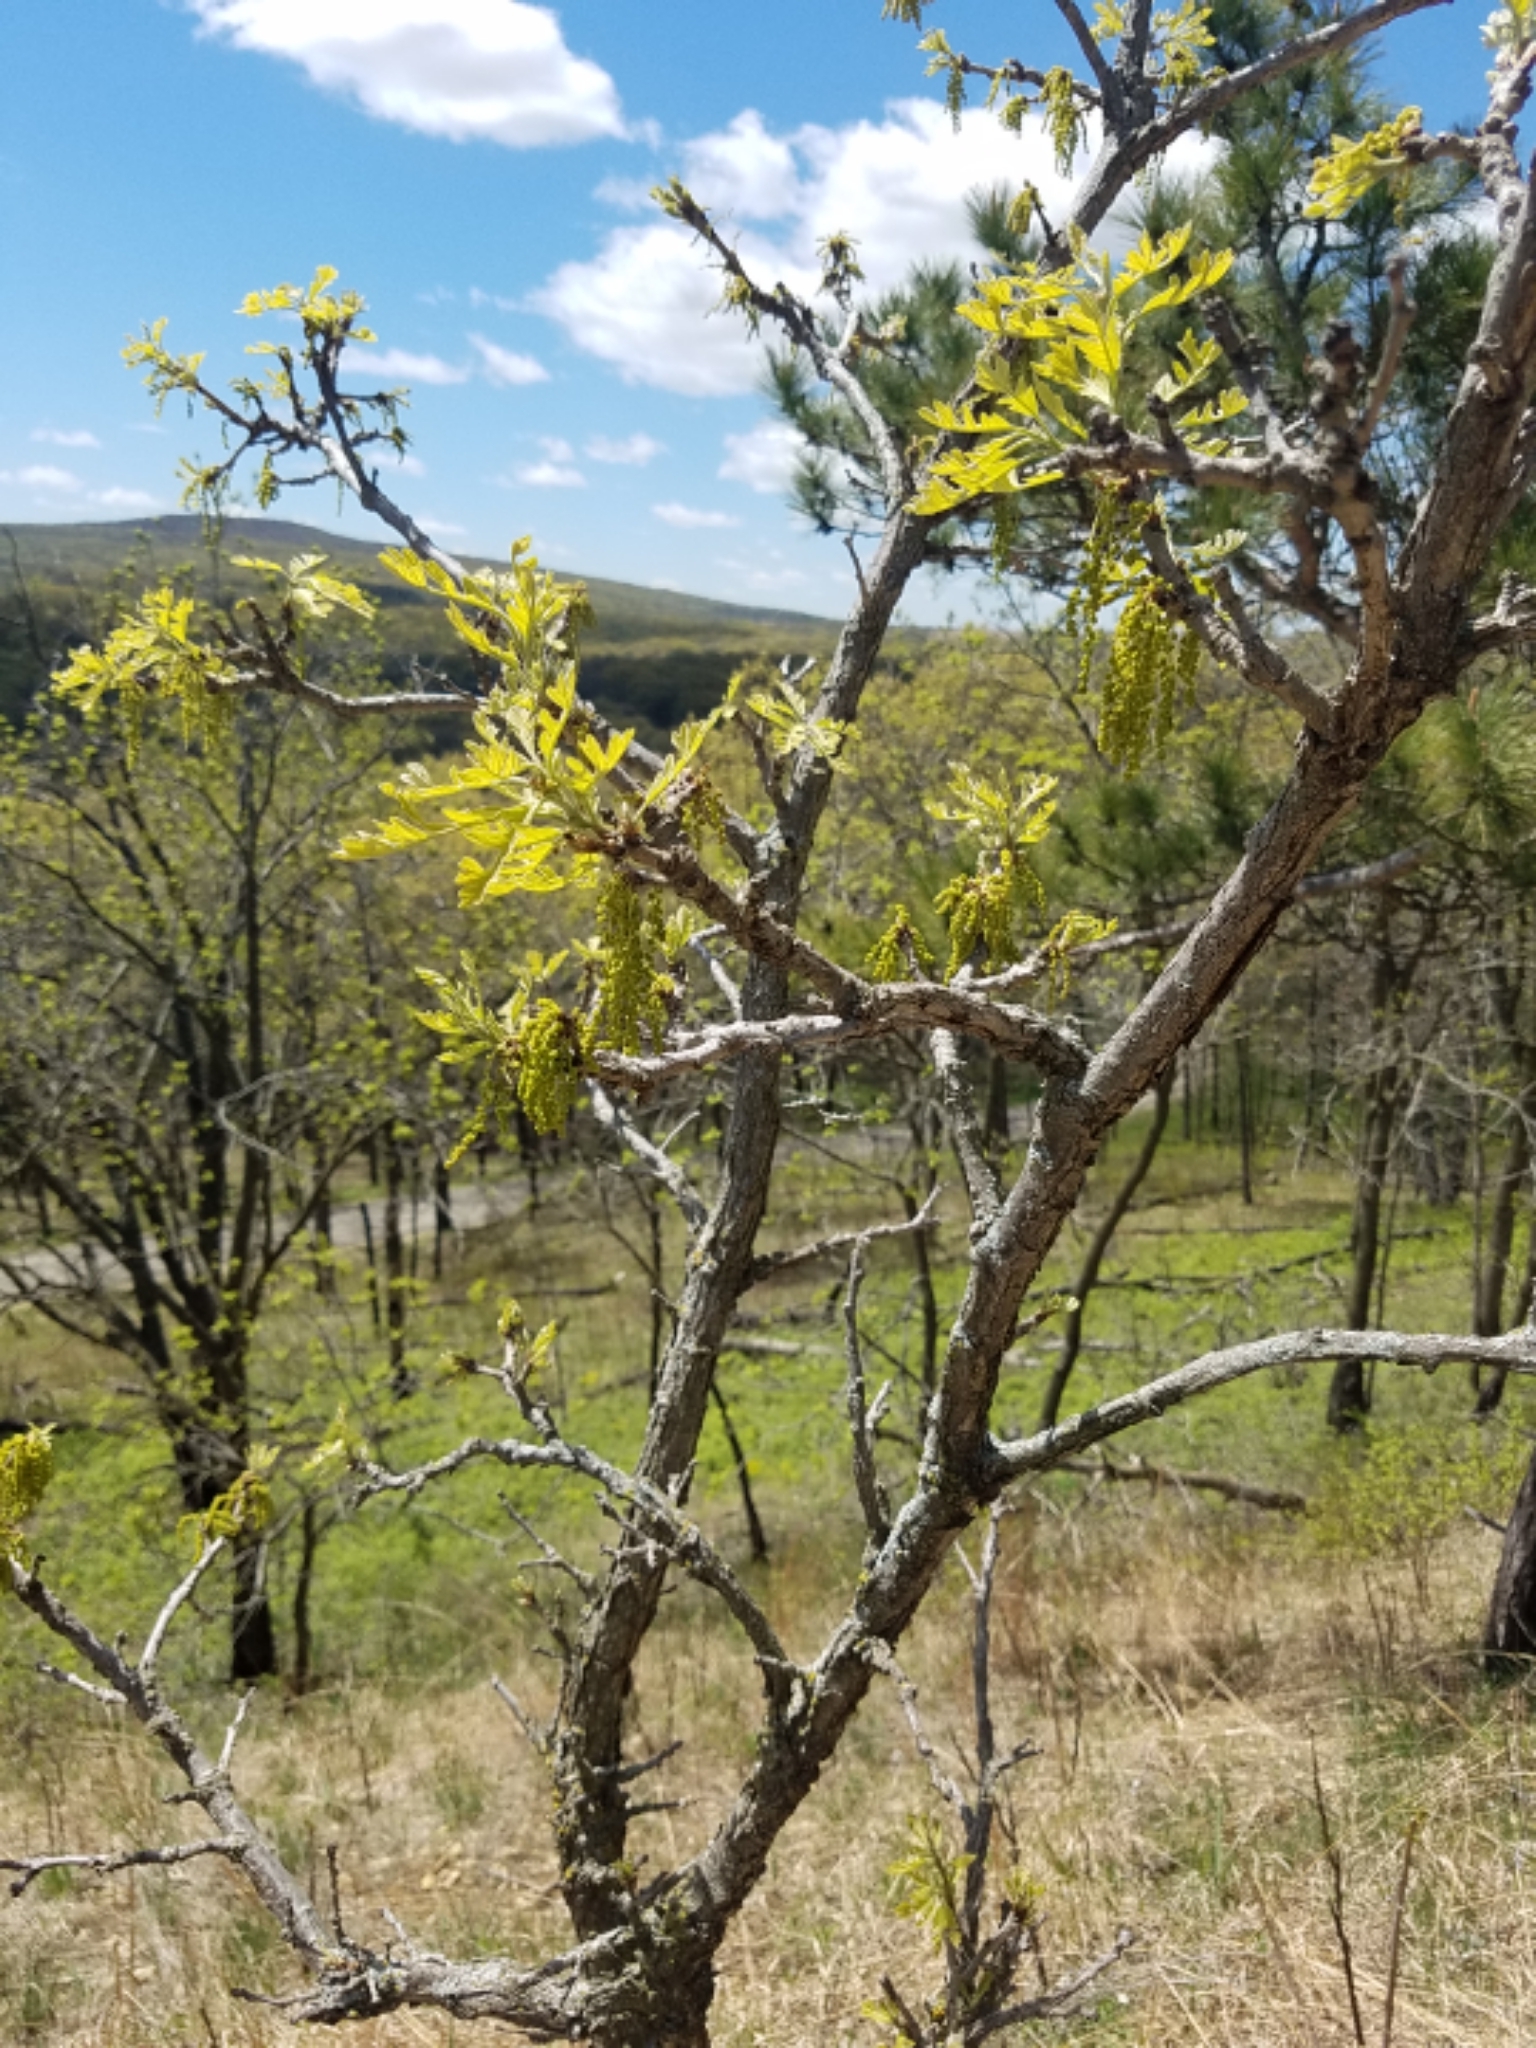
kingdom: Plantae
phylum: Tracheophyta
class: Magnoliopsida
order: Fagales
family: Fagaceae
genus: Quercus
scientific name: Quercus macrocarpa
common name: Bur oak
